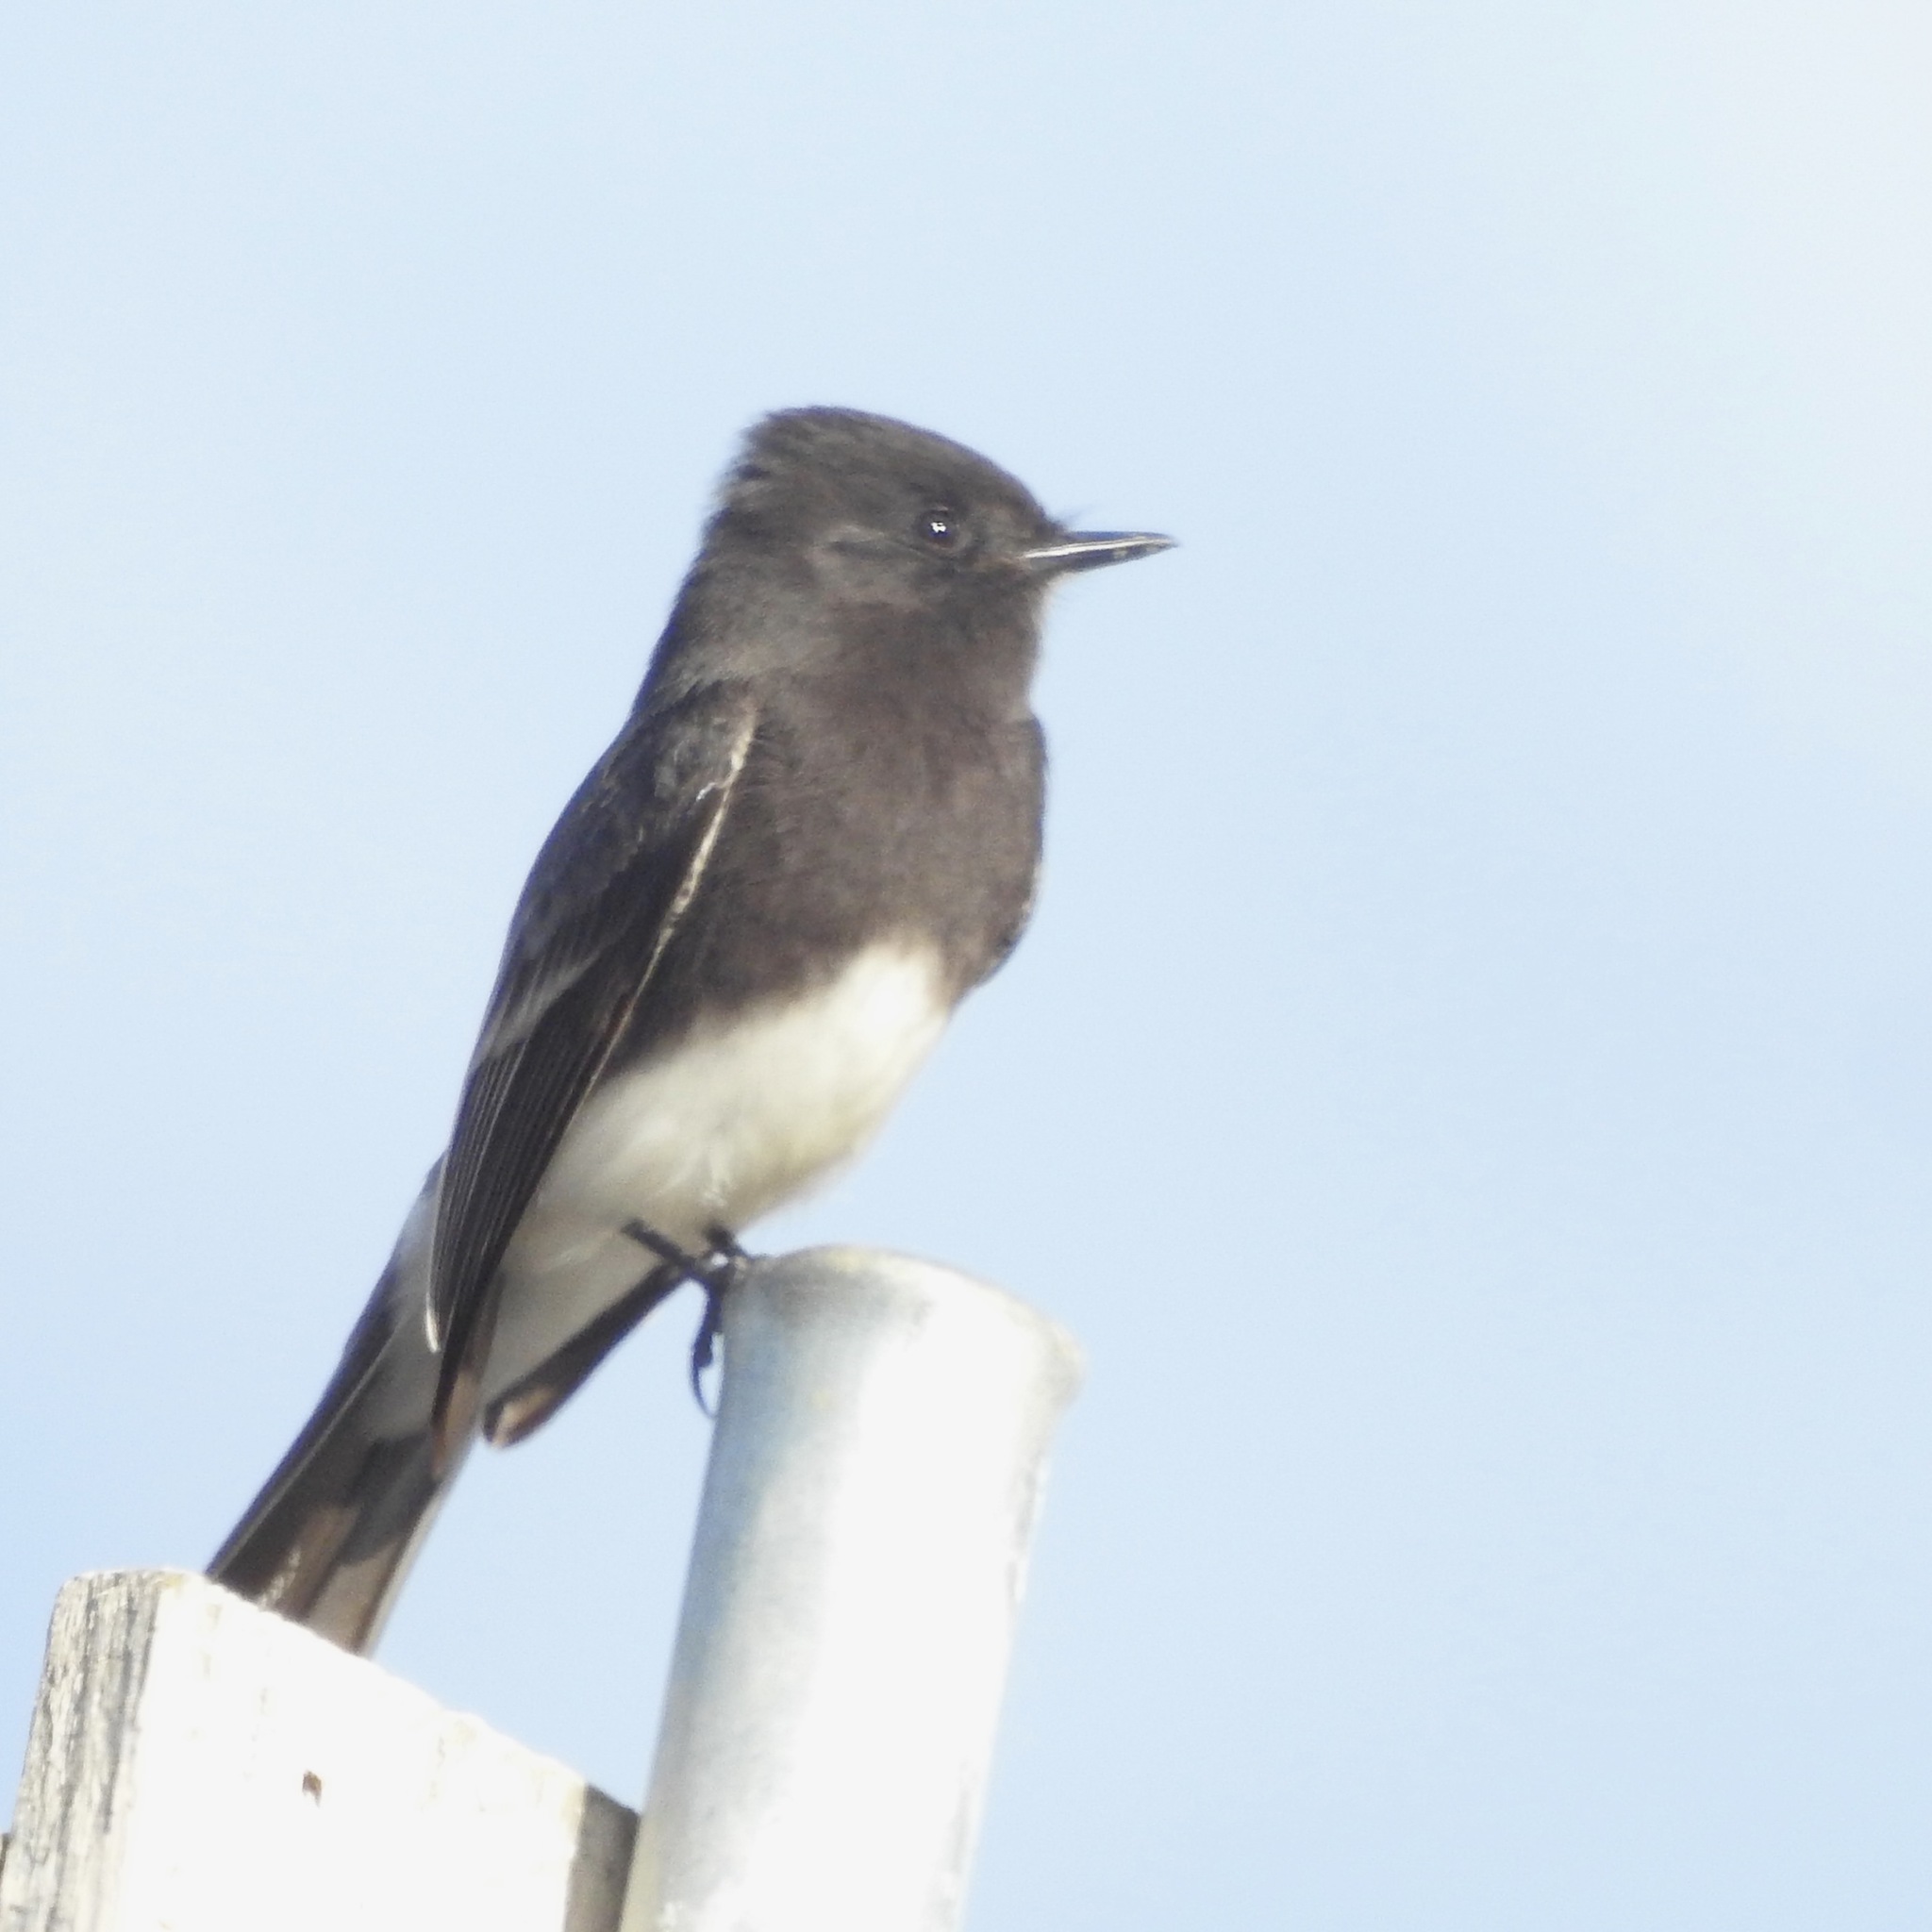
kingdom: Animalia
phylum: Chordata
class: Aves
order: Passeriformes
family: Tyrannidae
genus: Sayornis
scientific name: Sayornis nigricans
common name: Black phoebe
